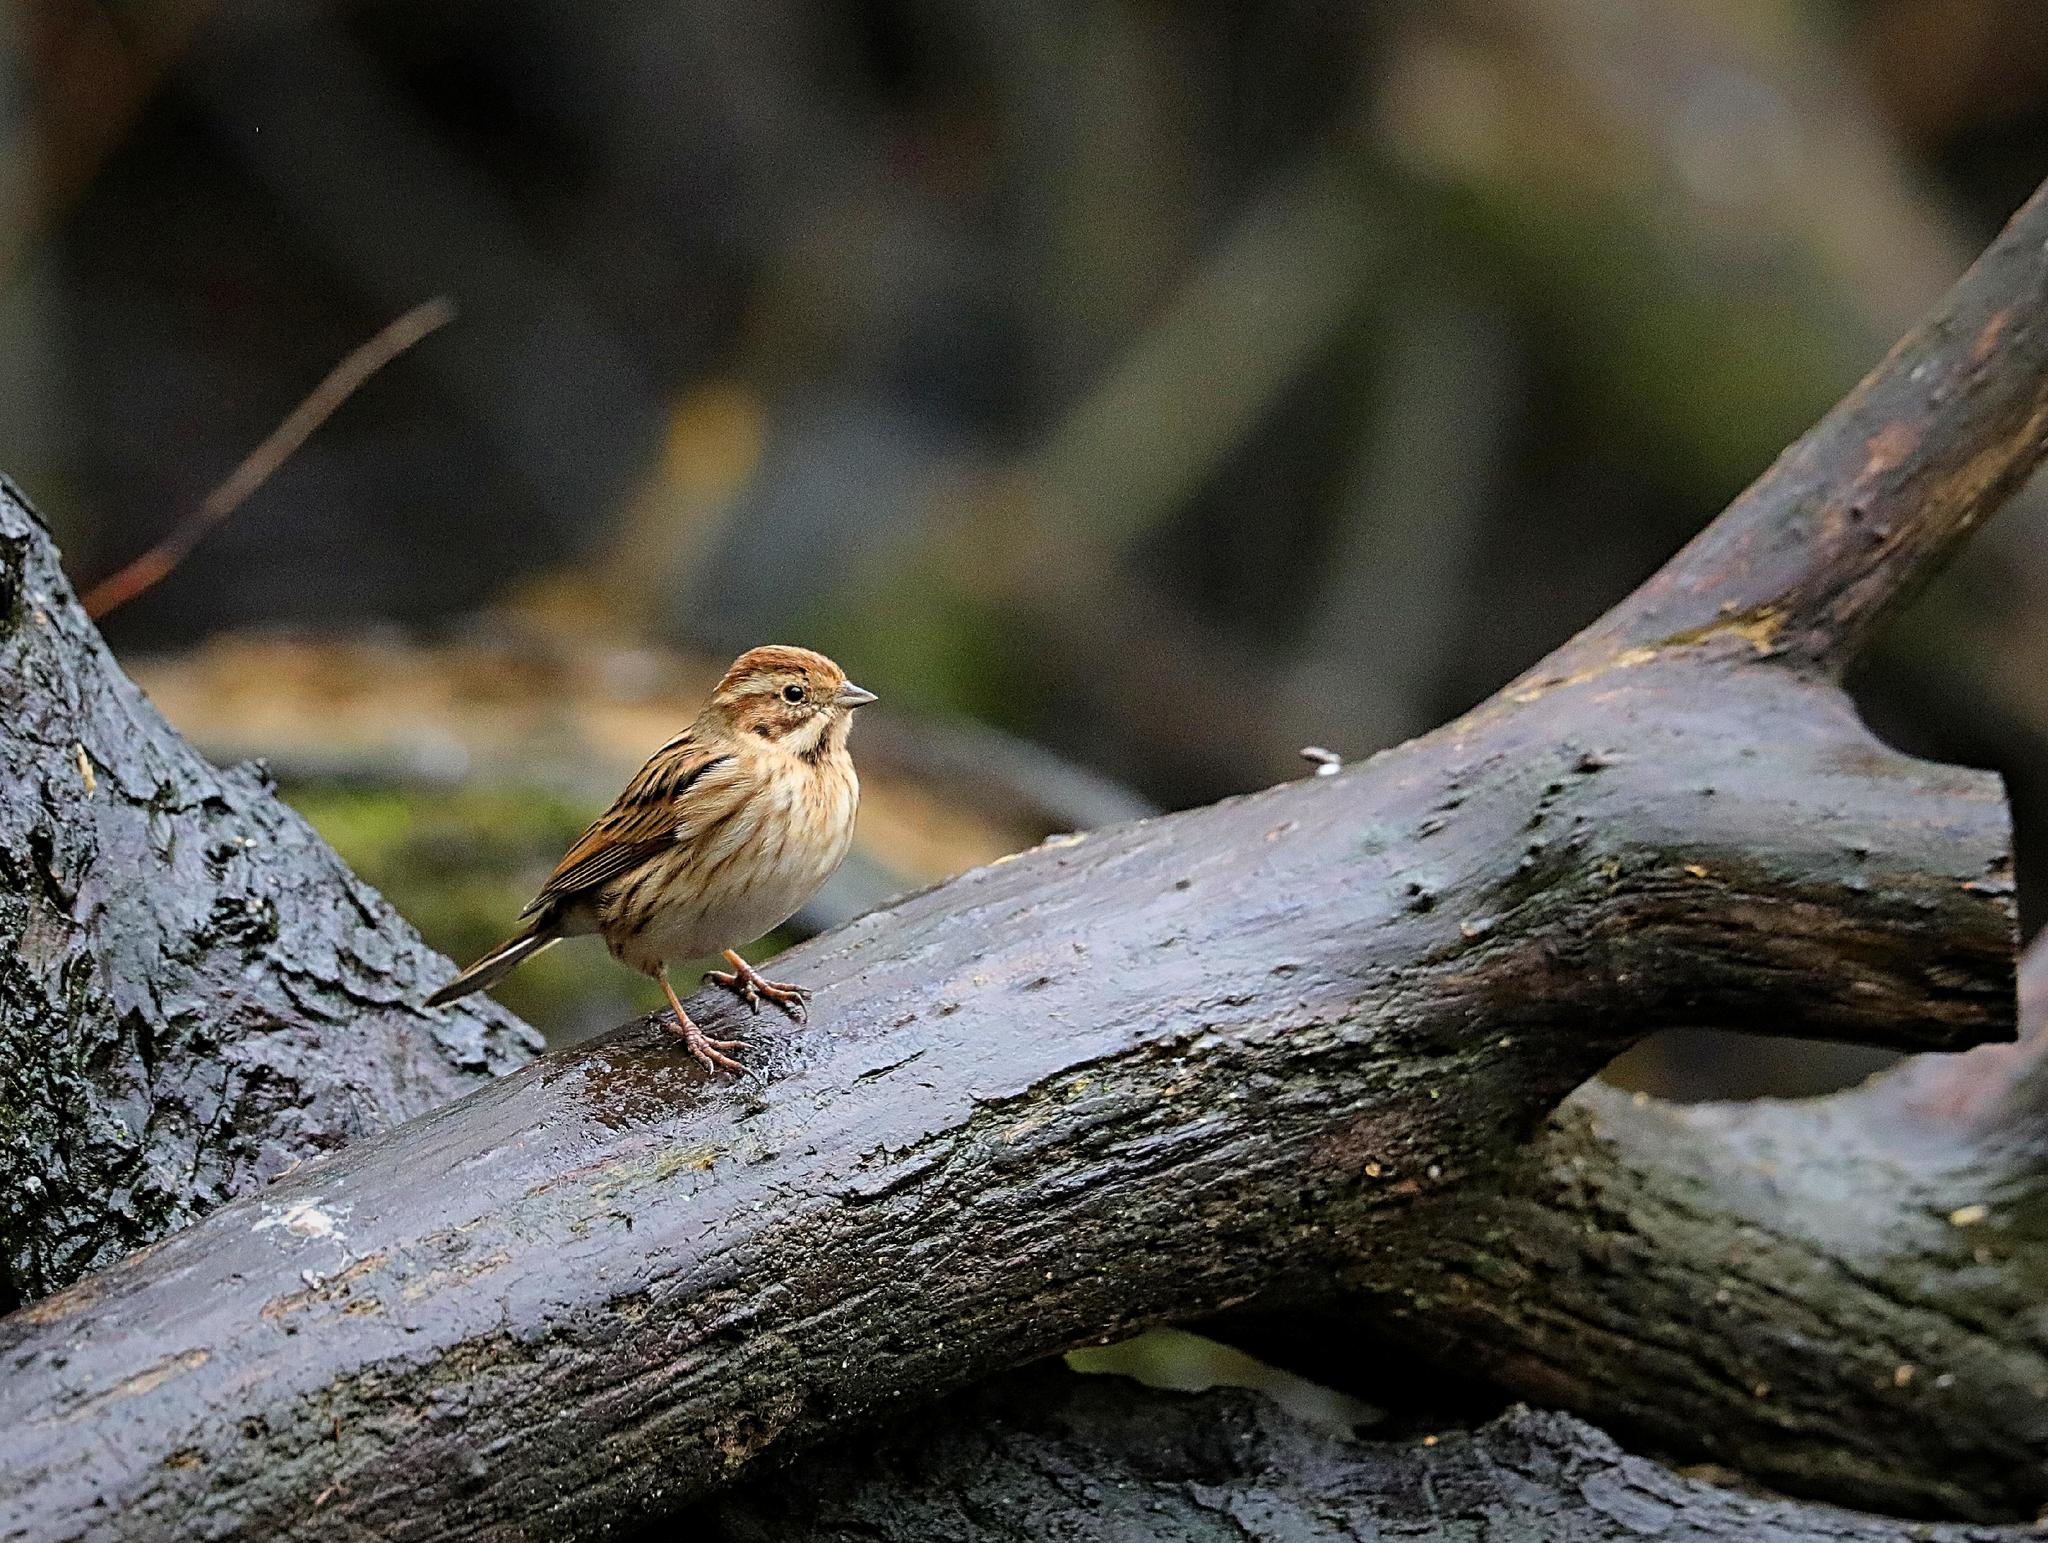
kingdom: Animalia
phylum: Chordata
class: Aves
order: Passeriformes
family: Emberizidae
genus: Emberiza
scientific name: Emberiza schoeniclus
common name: Reed bunting
